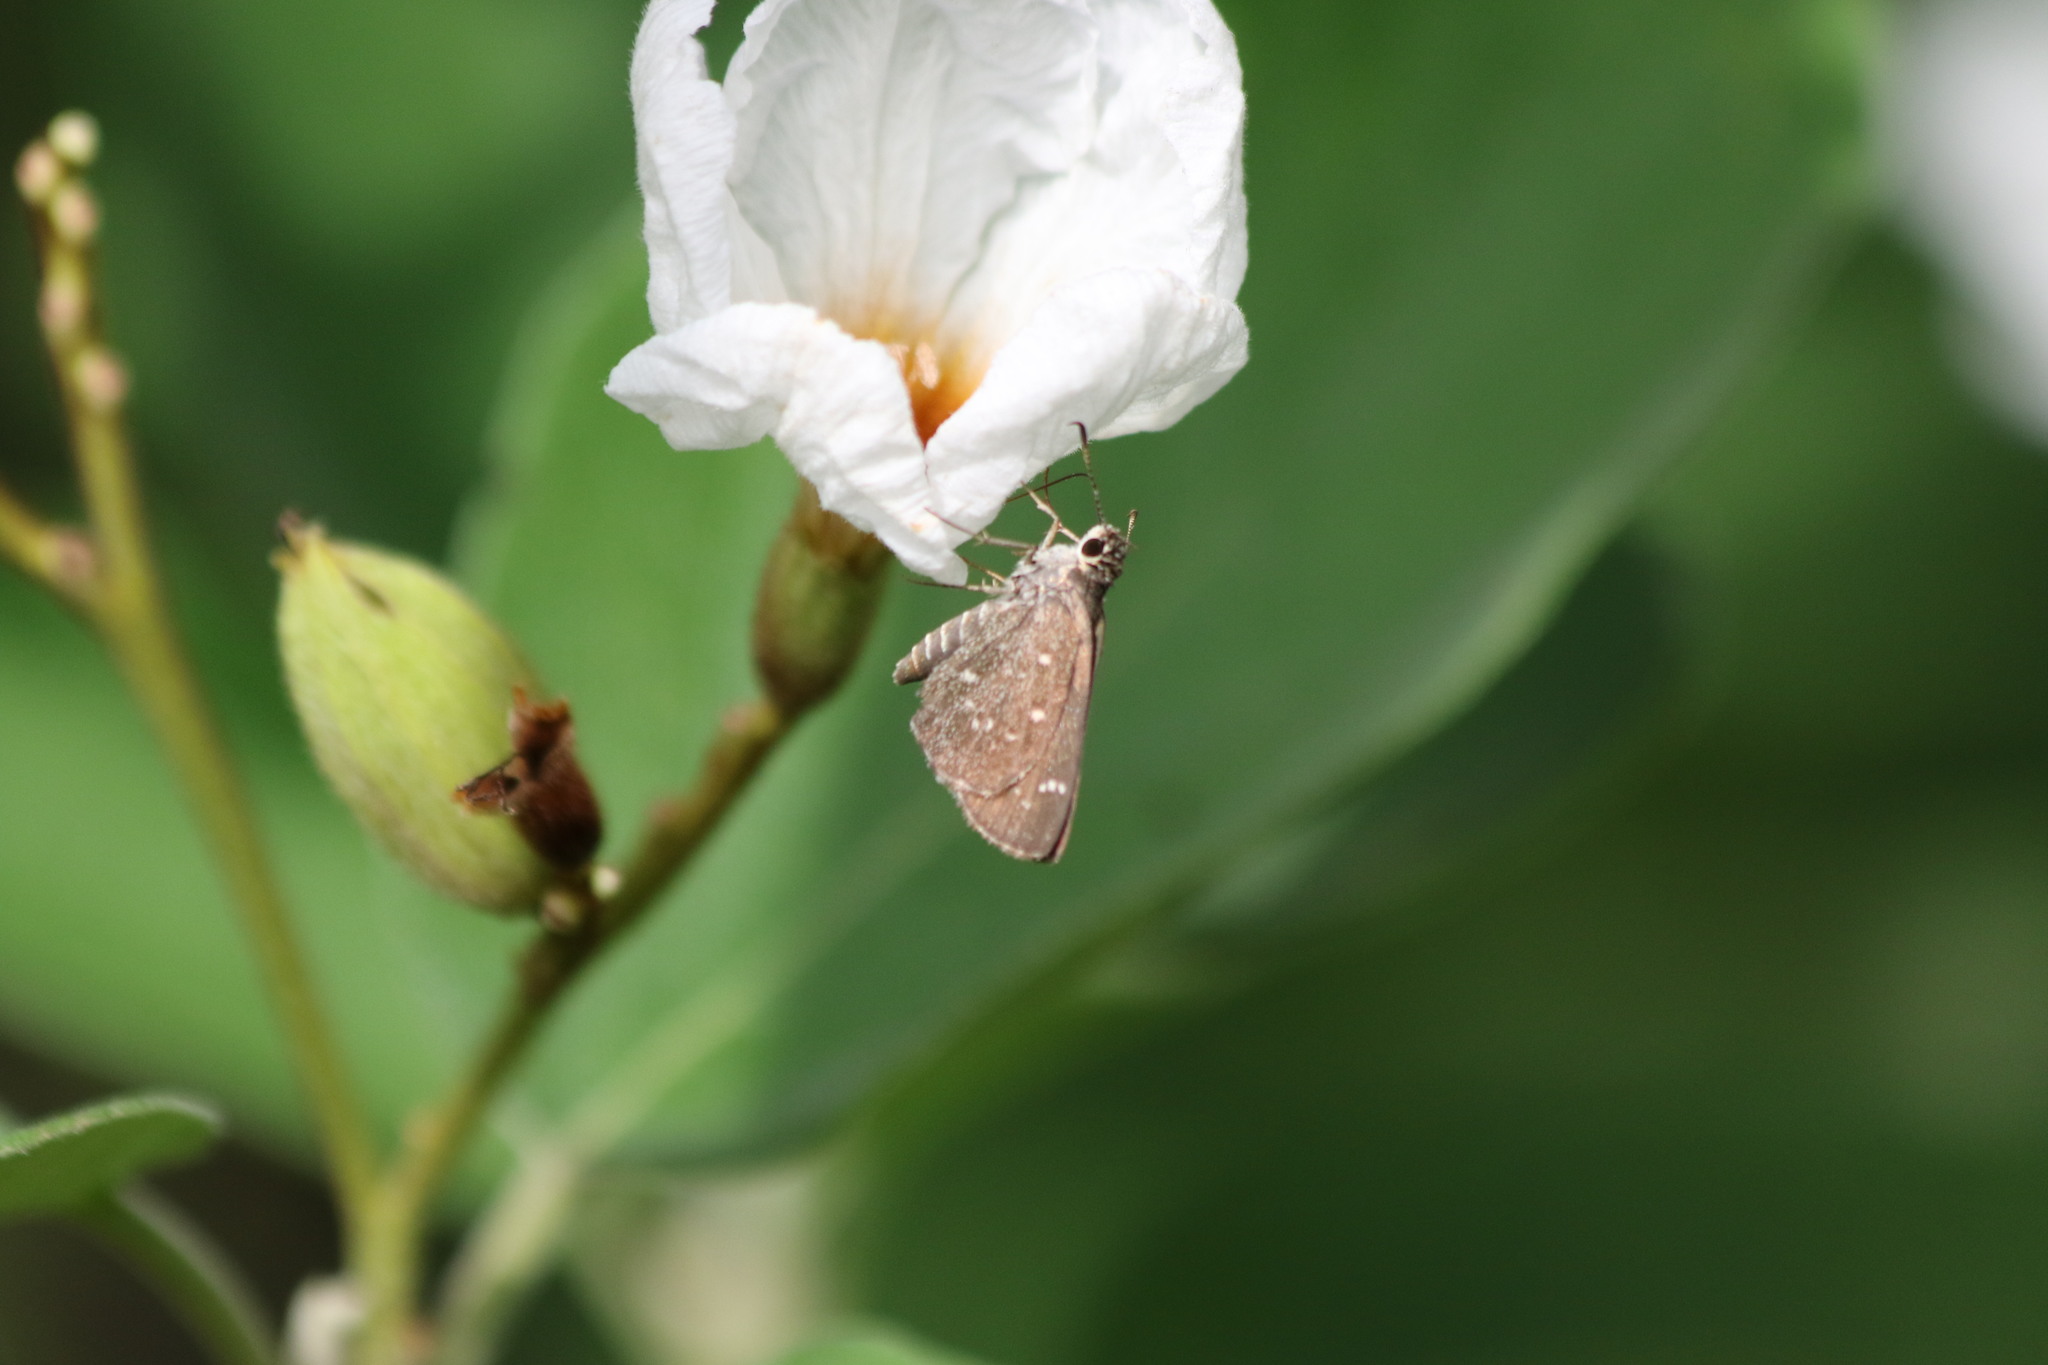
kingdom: Animalia
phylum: Arthropoda
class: Insecta
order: Lepidoptera
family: Hesperiidae
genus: Mastor
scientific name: Mastor celia
